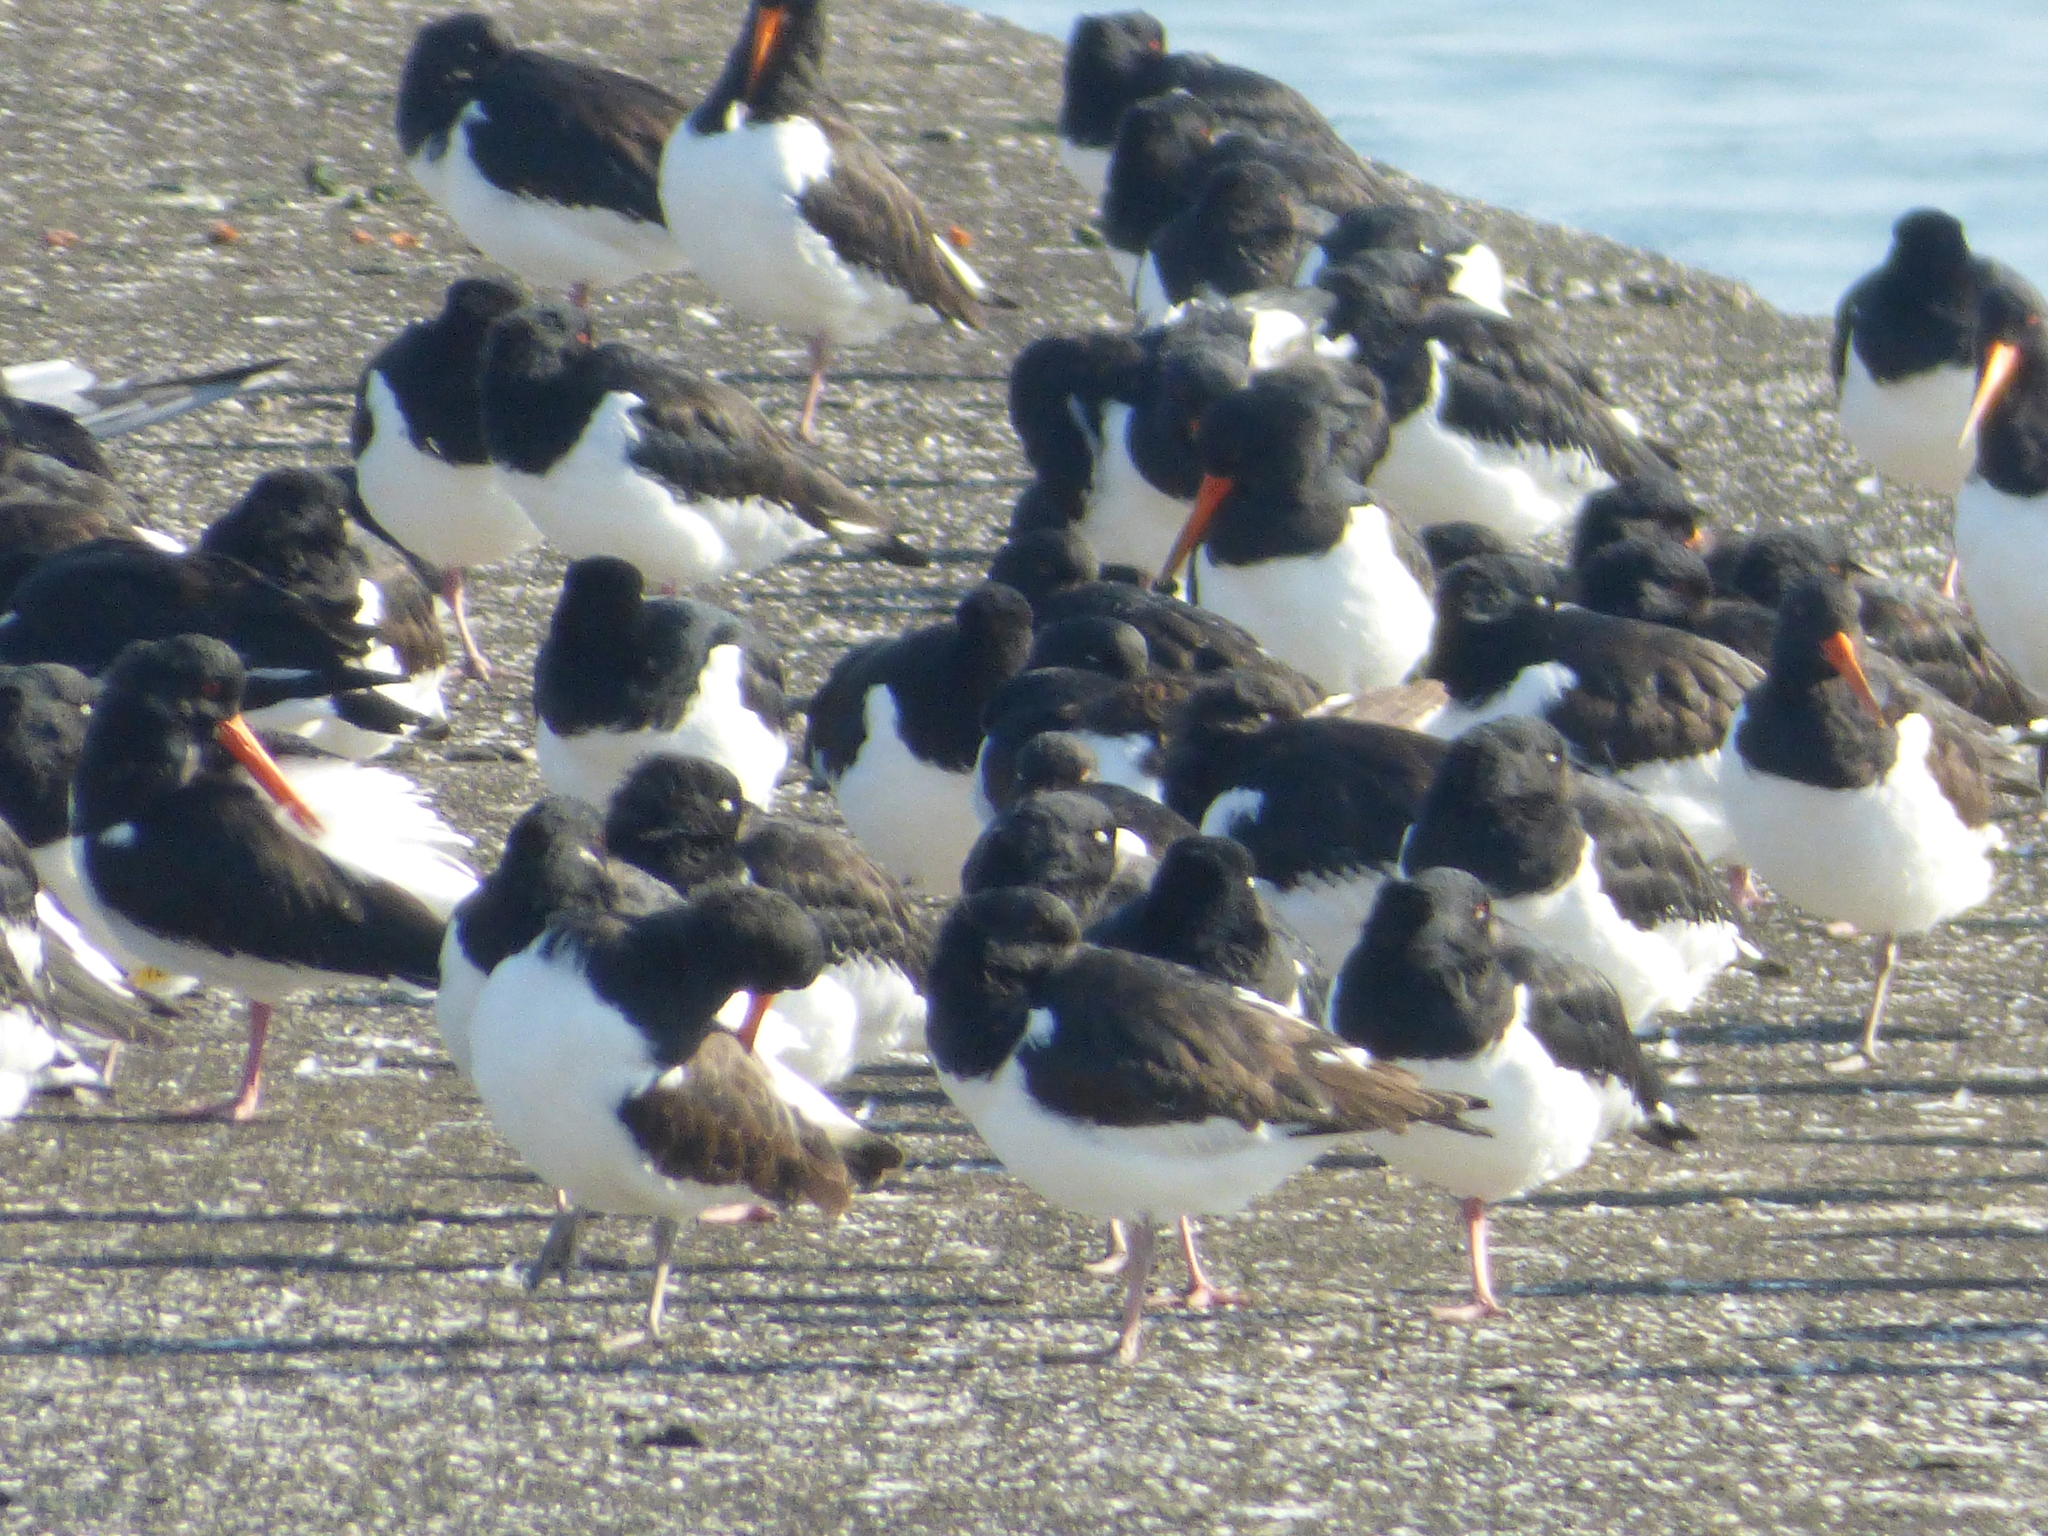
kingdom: Animalia
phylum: Chordata
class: Aves
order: Charadriiformes
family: Haematopodidae
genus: Haematopus
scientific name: Haematopus ostralegus
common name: Eurasian oystercatcher
